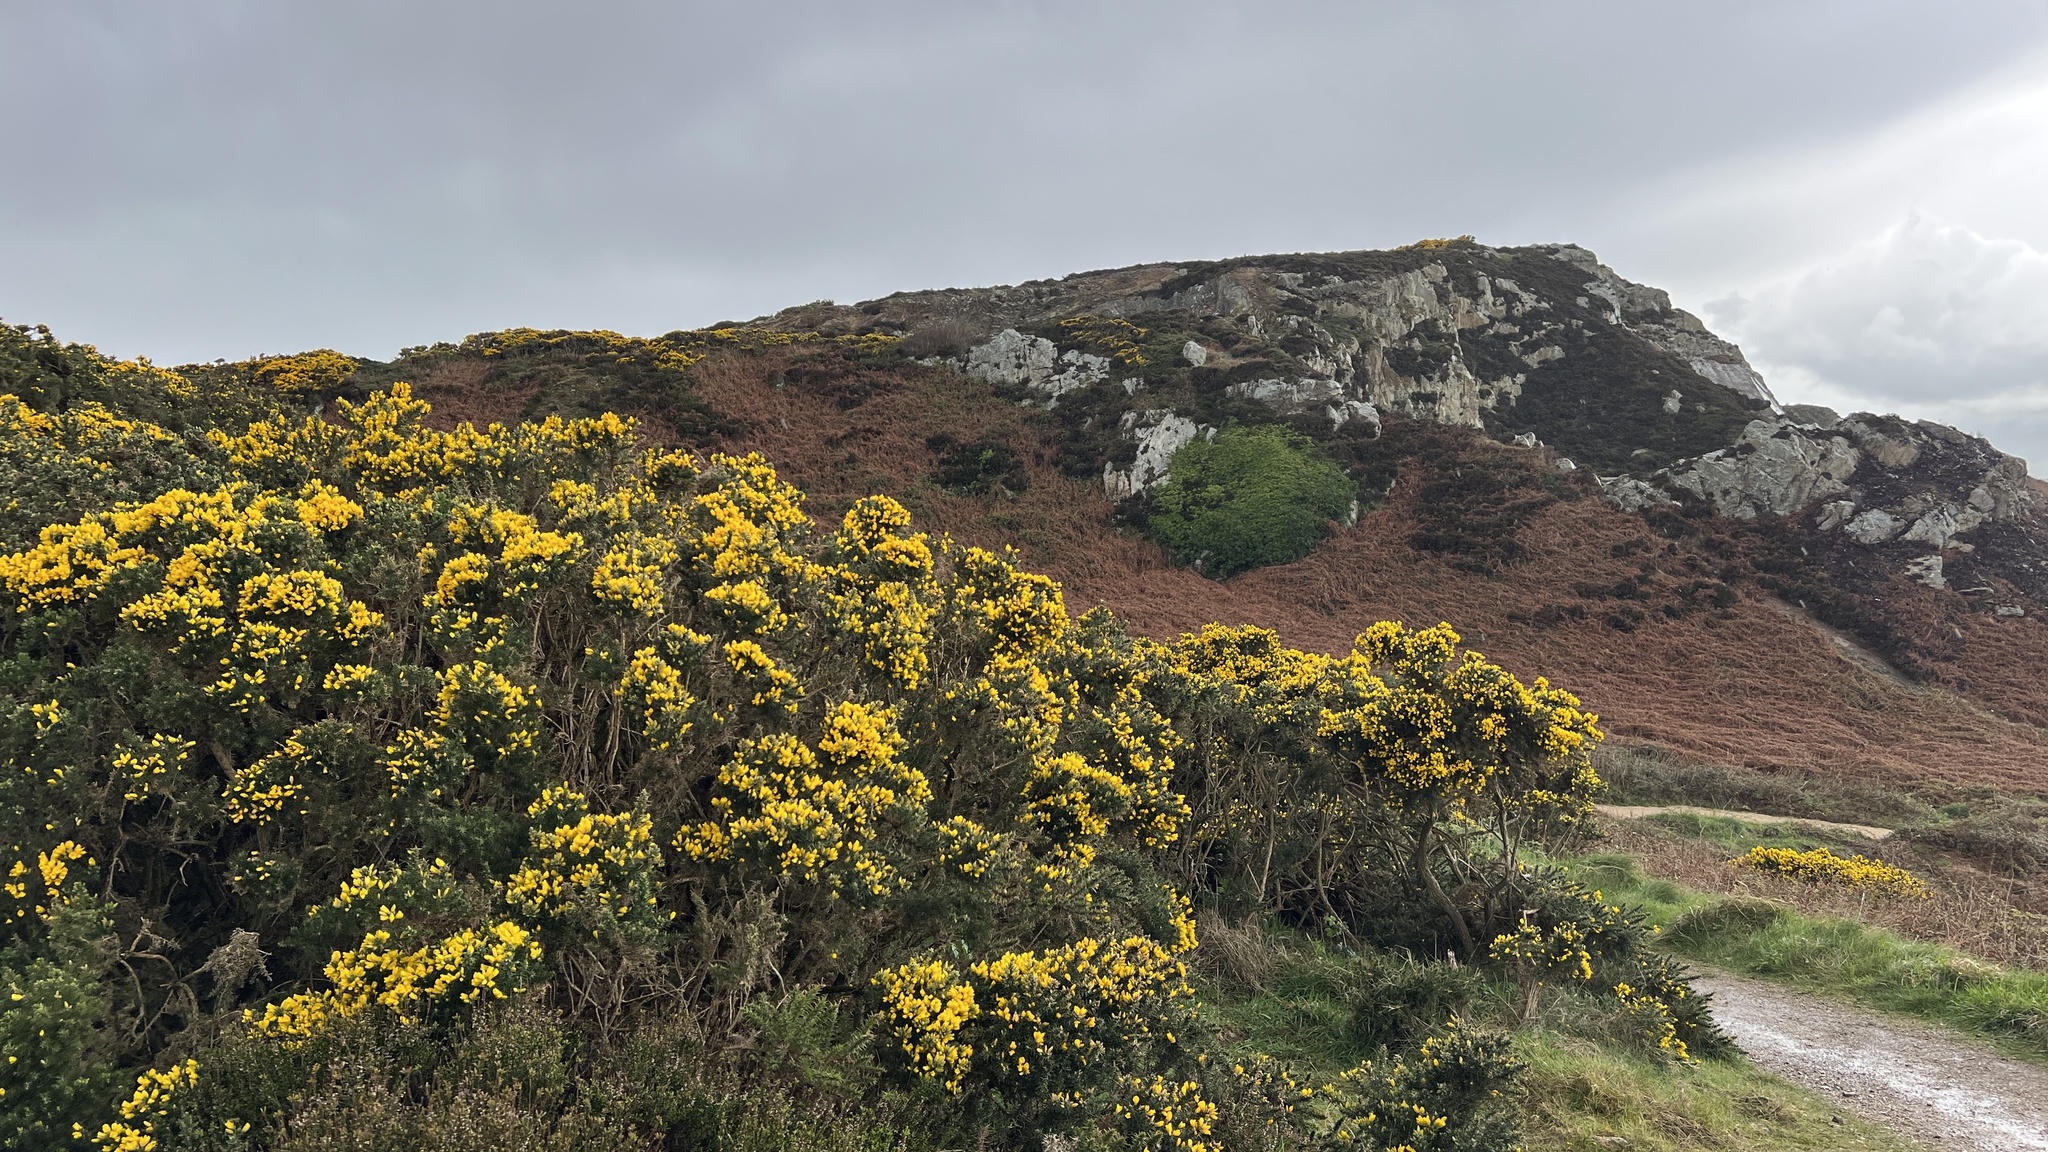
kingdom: Plantae
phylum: Tracheophyta
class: Magnoliopsida
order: Fabales
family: Fabaceae
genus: Ulex
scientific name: Ulex europaeus
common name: Common gorse
